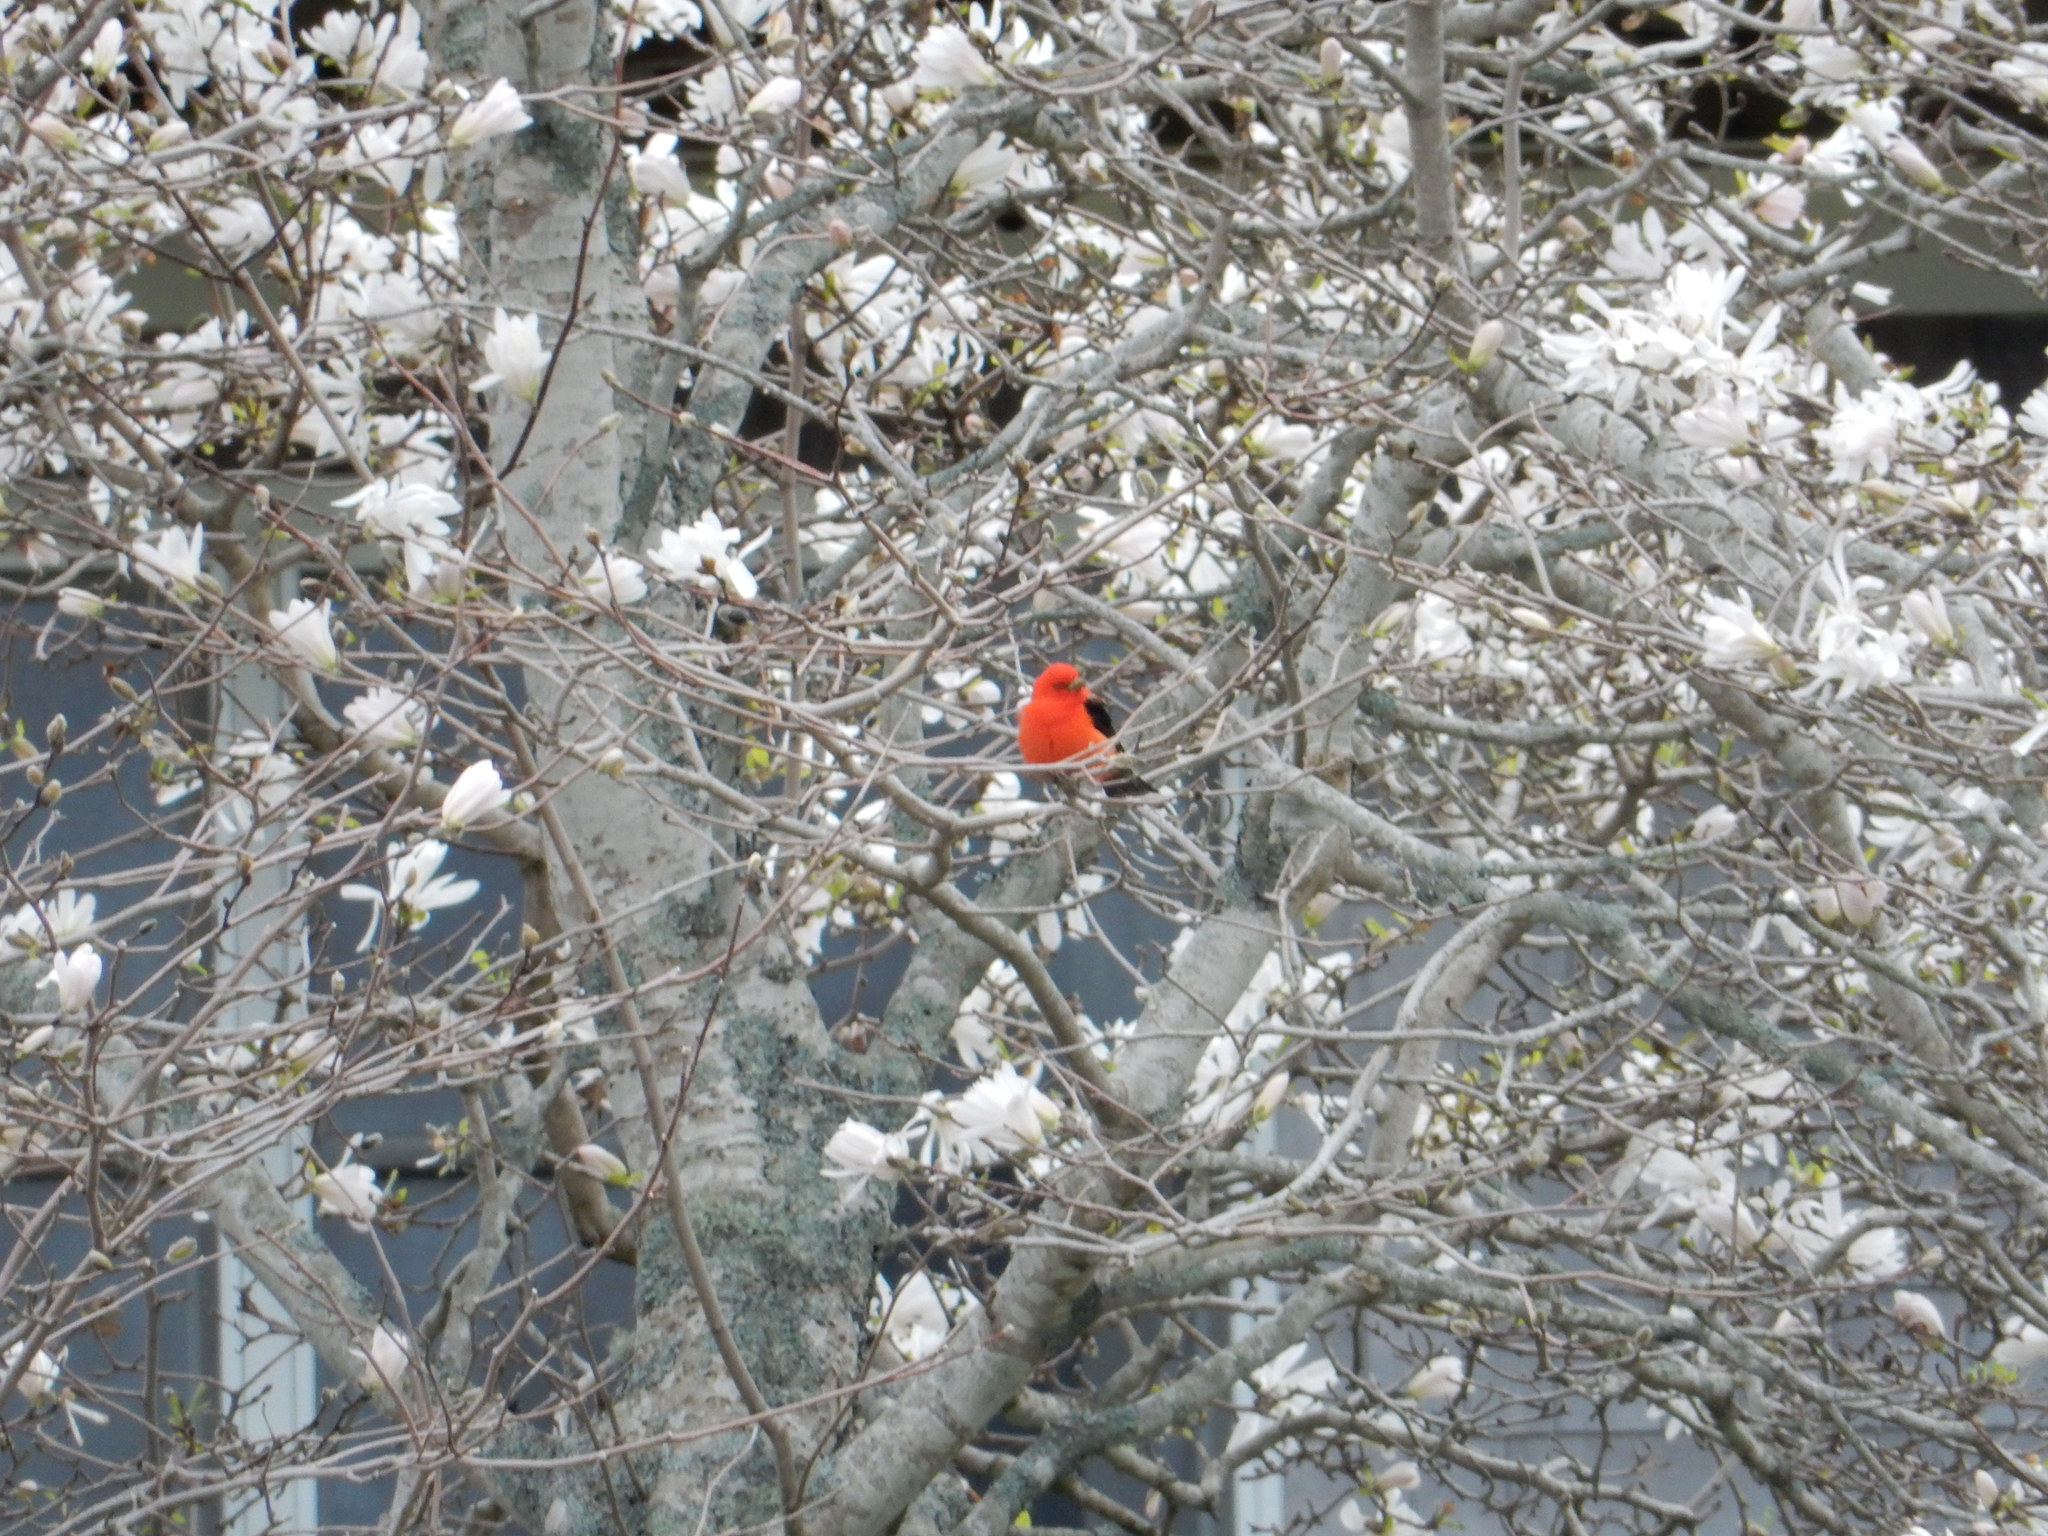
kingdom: Animalia
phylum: Chordata
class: Aves
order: Passeriformes
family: Cardinalidae
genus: Piranga
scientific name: Piranga olivacea
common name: Scarlet tanager
